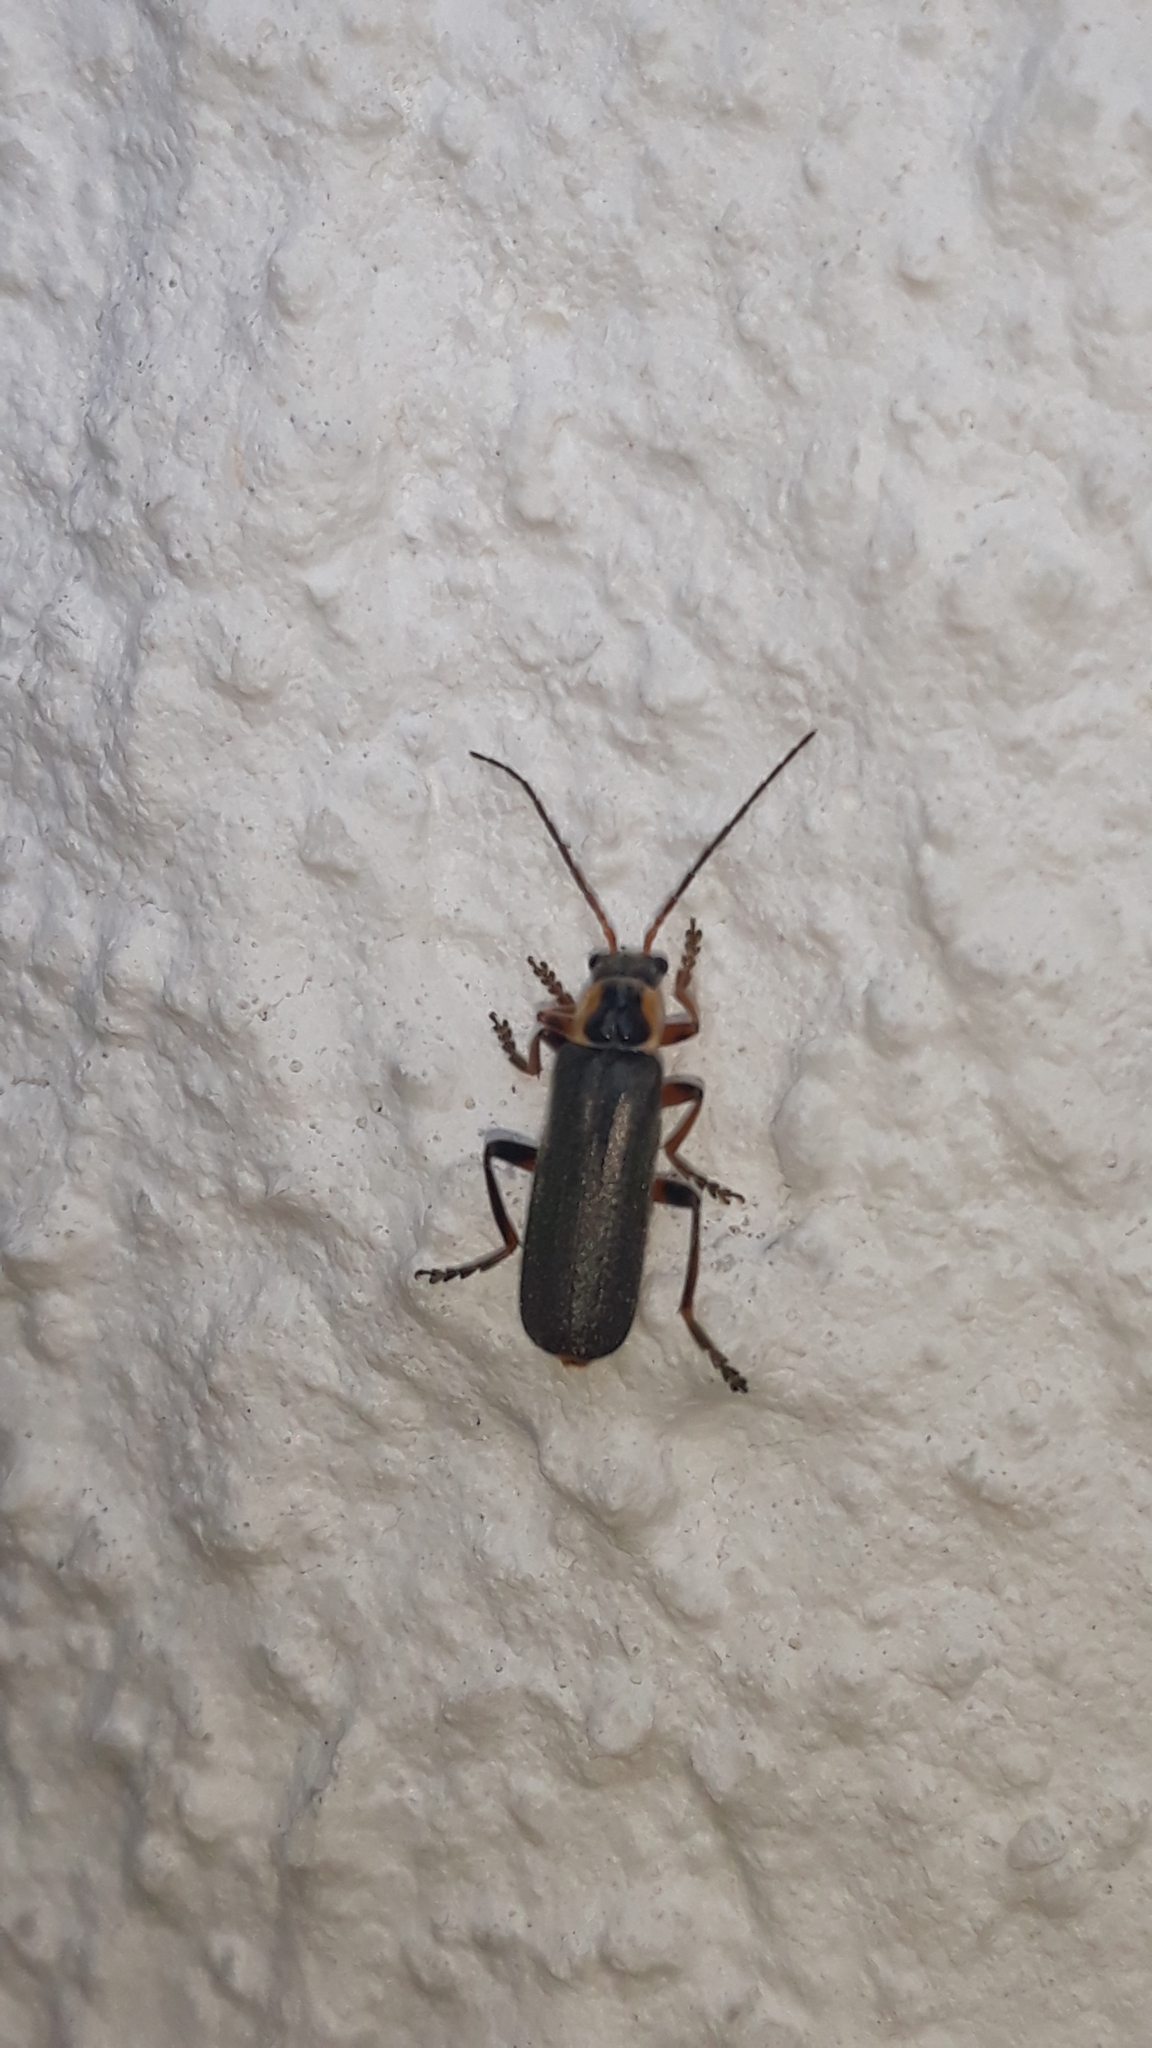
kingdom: Animalia
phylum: Arthropoda
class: Insecta
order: Coleoptera
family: Cantharidae
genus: Cantharis
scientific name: Cantharis nigricans
